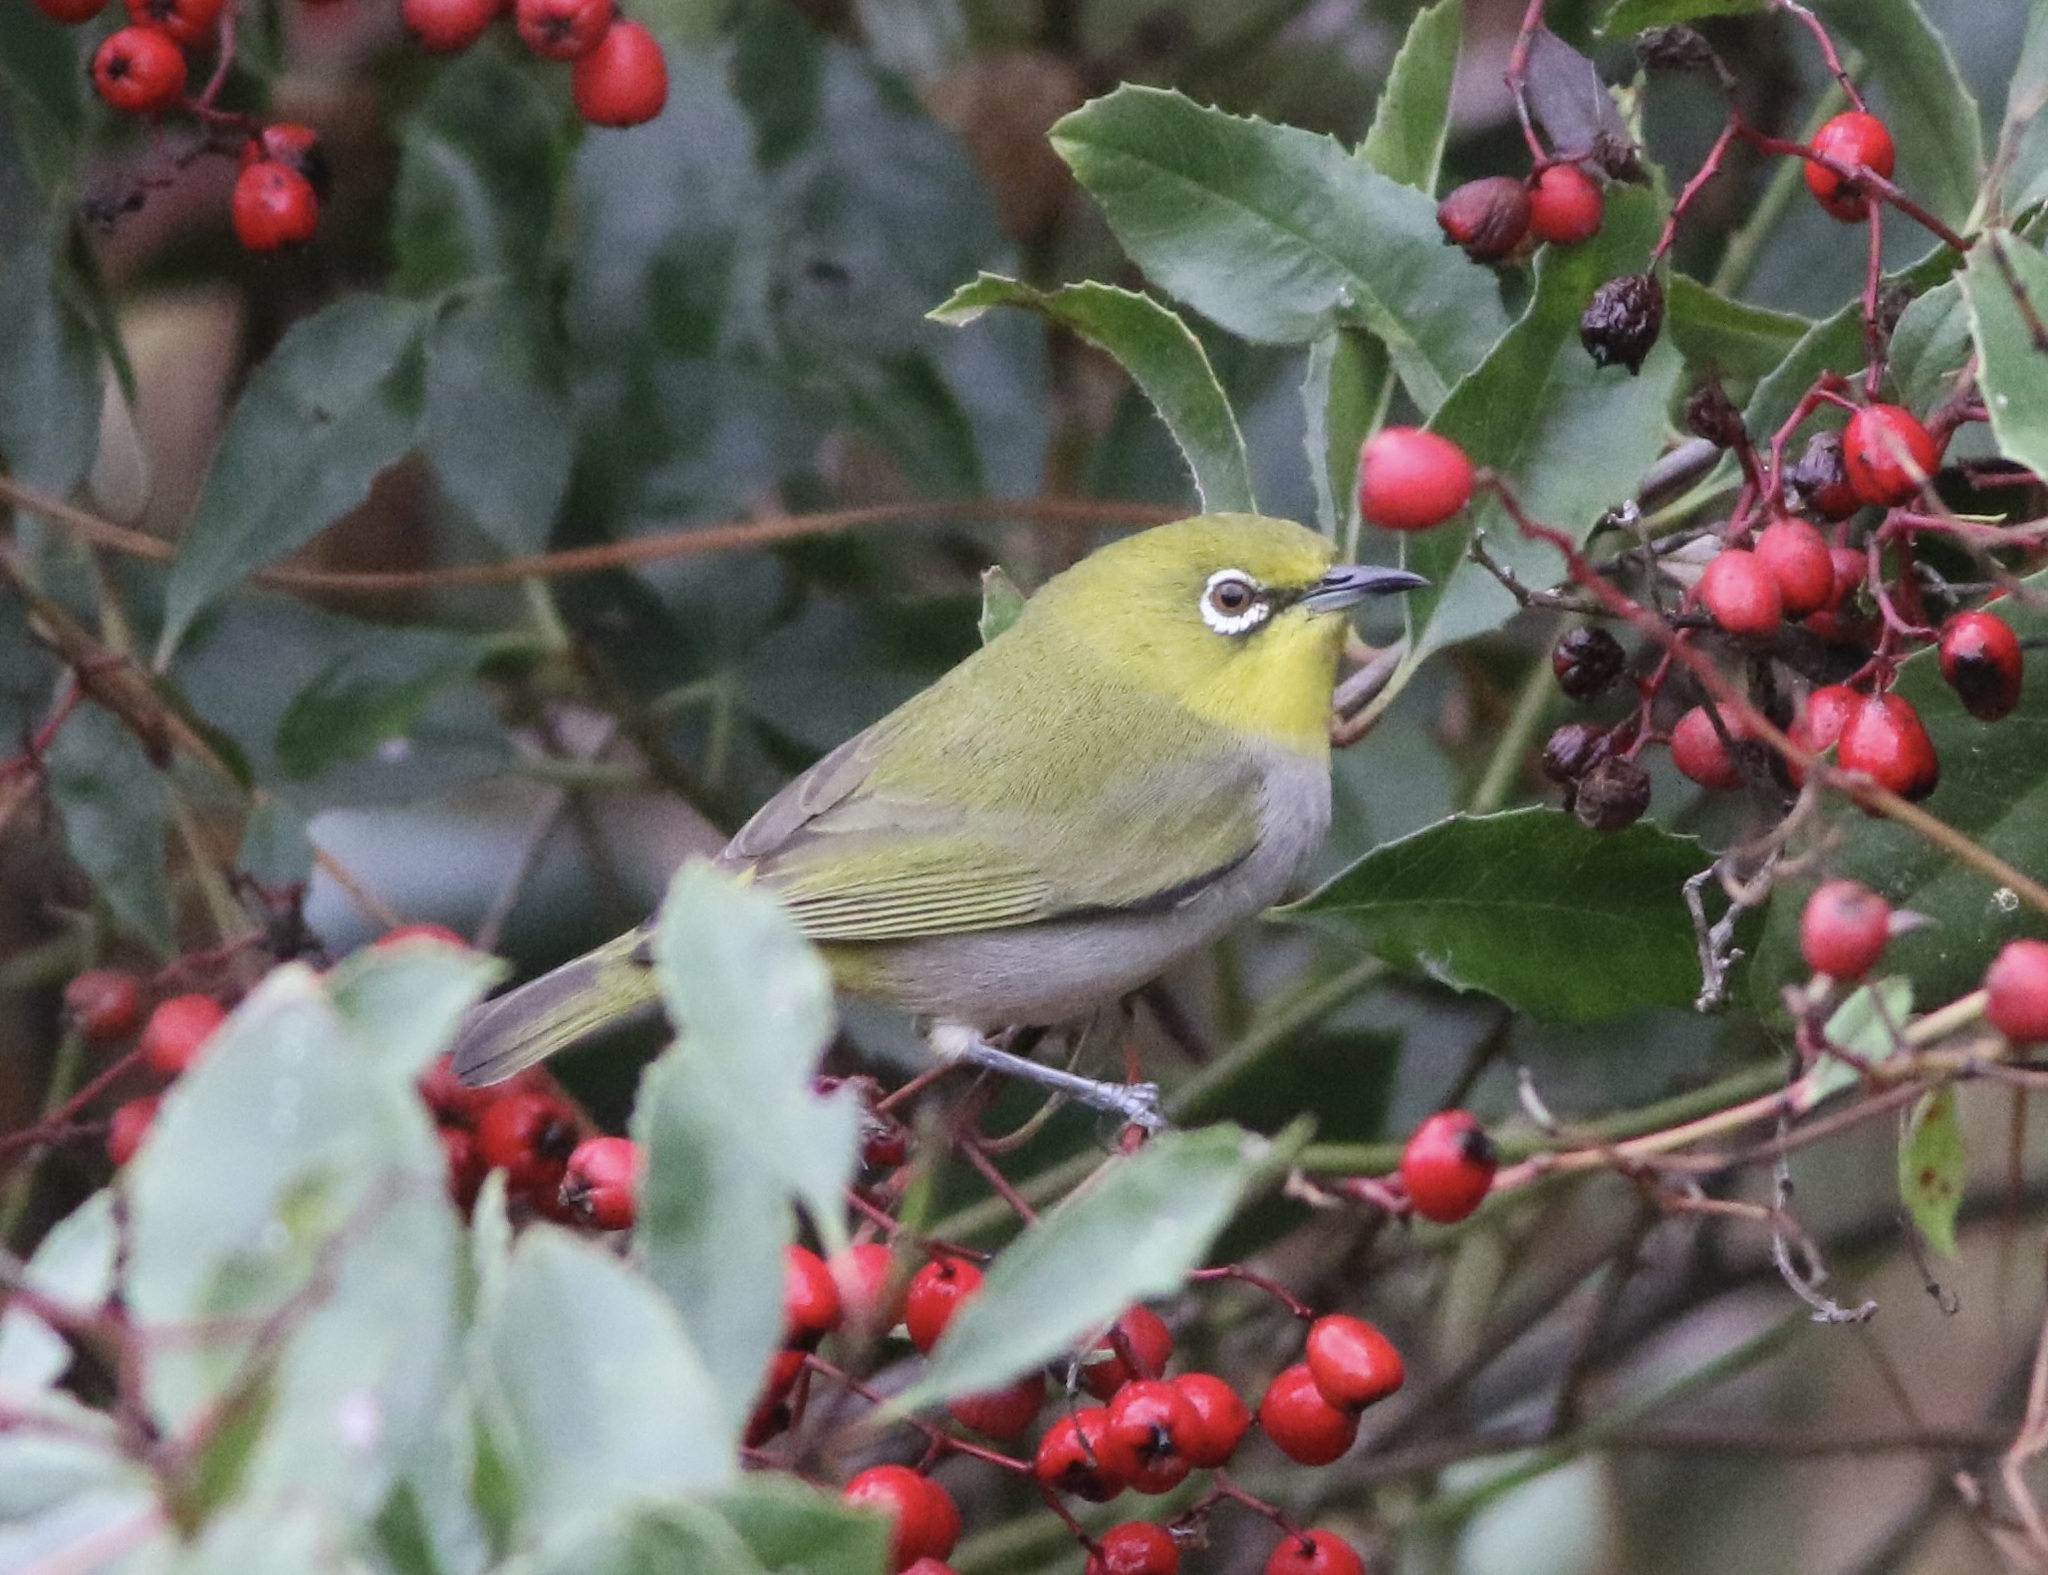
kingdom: Animalia
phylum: Chordata
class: Aves
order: Passeriformes
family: Zosteropidae
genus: Zosterops
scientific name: Zosterops simplex
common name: Swinhoe's white-eye
